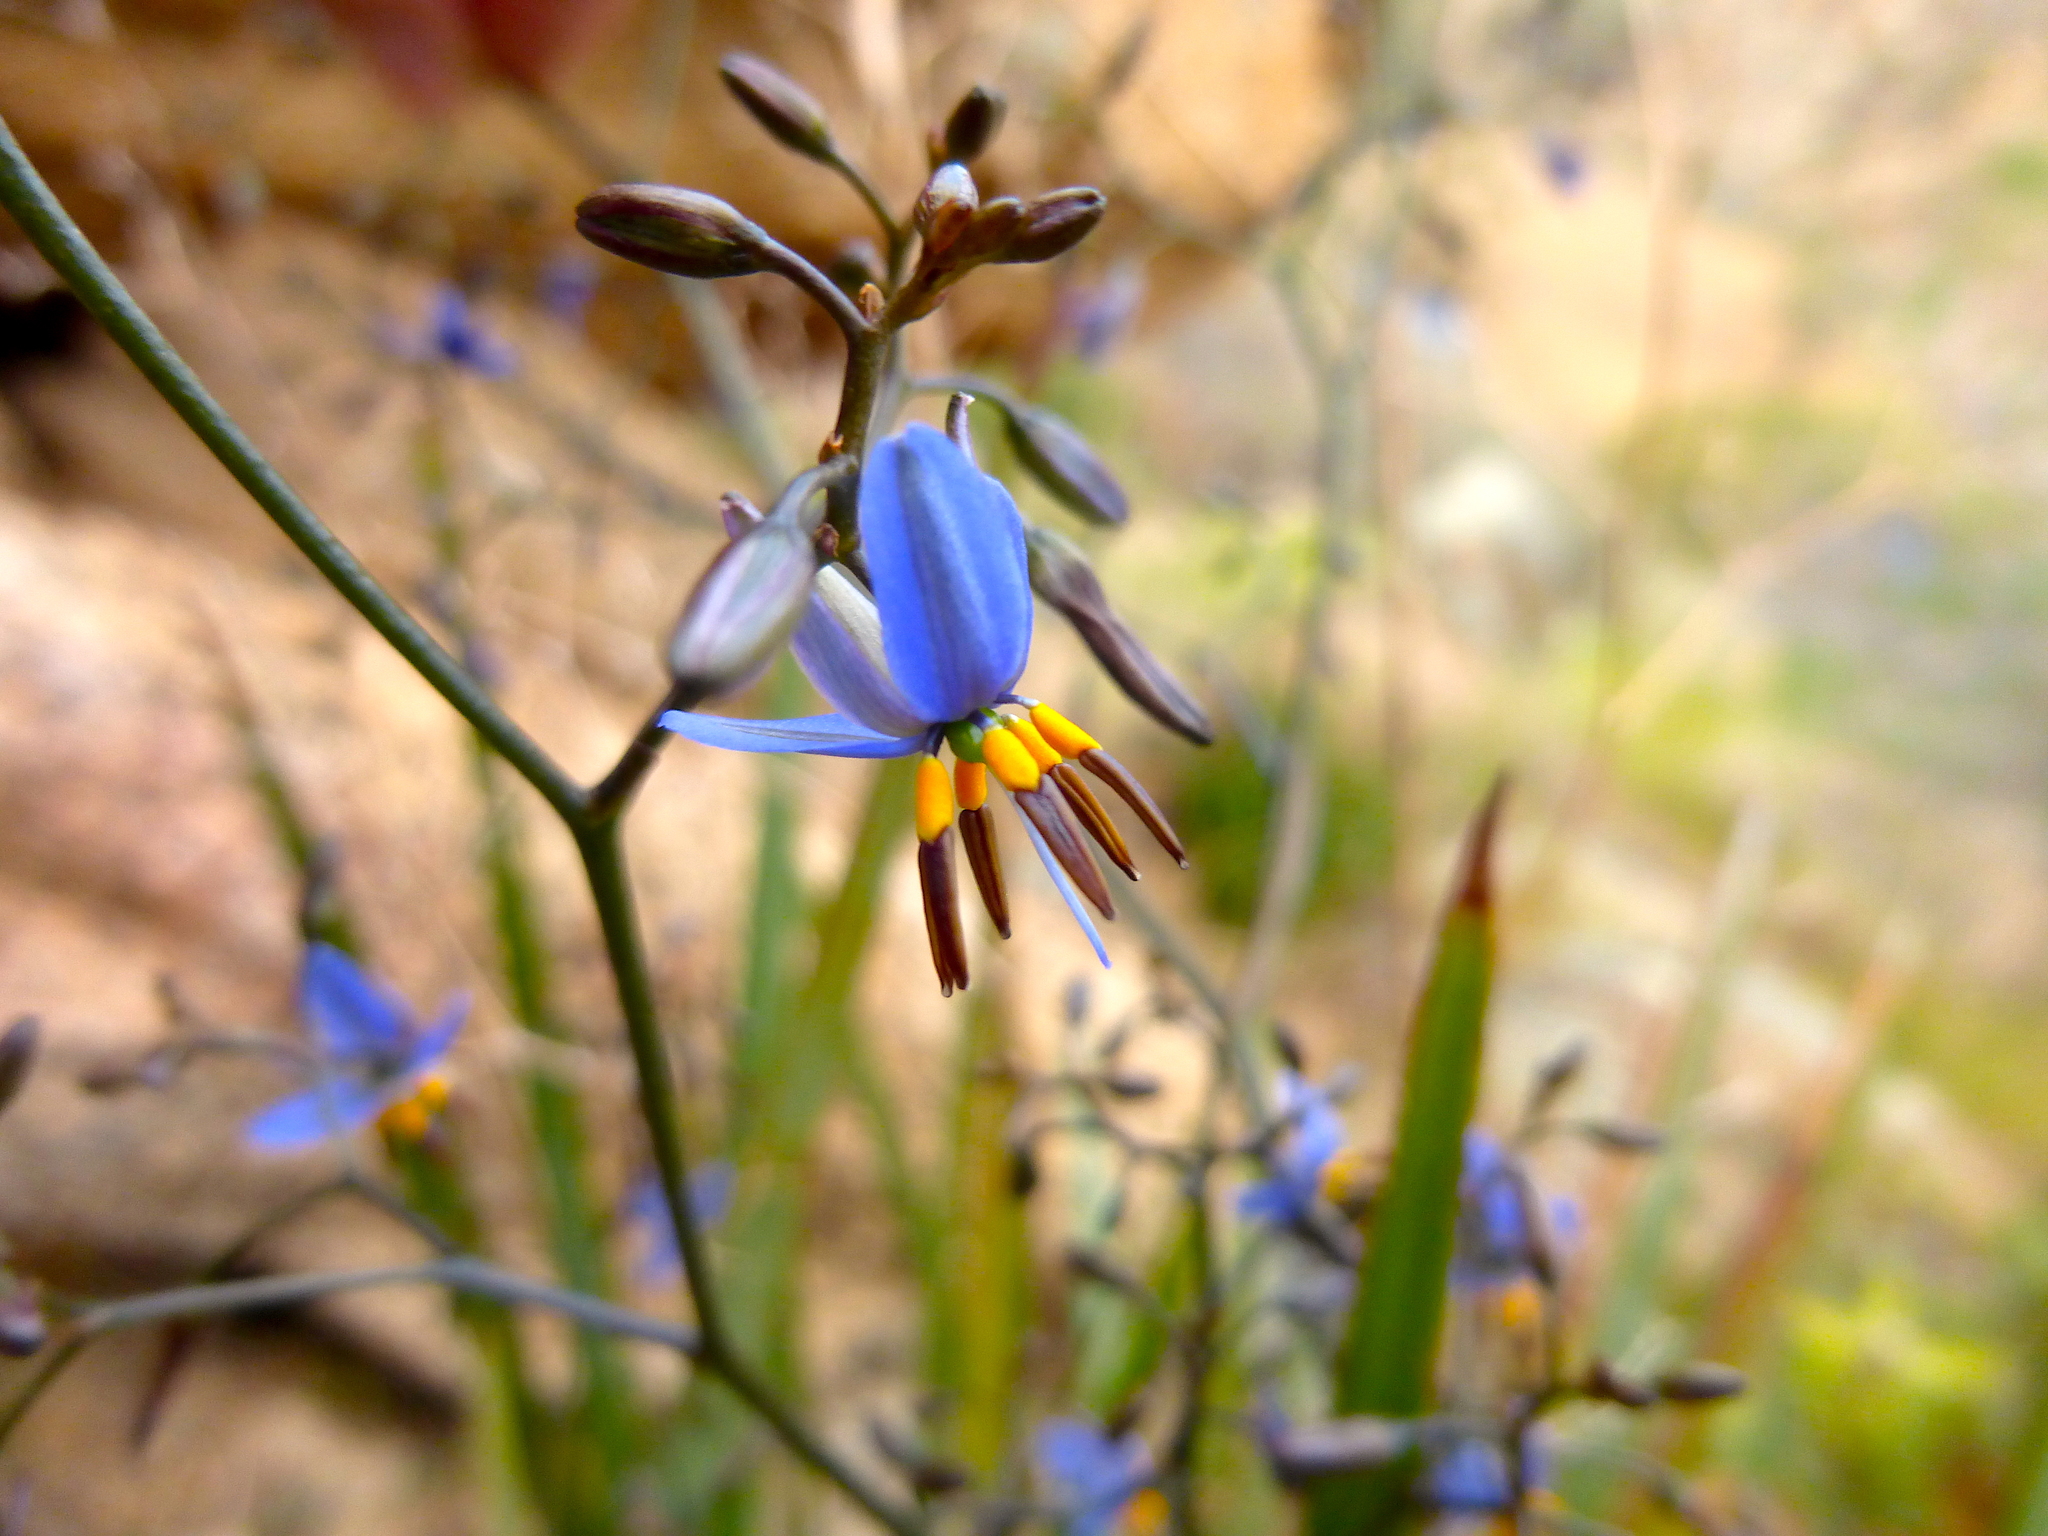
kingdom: Plantae
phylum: Tracheophyta
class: Liliopsida
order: Asparagales
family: Asphodelaceae
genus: Dianella
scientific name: Dianella revoluta
